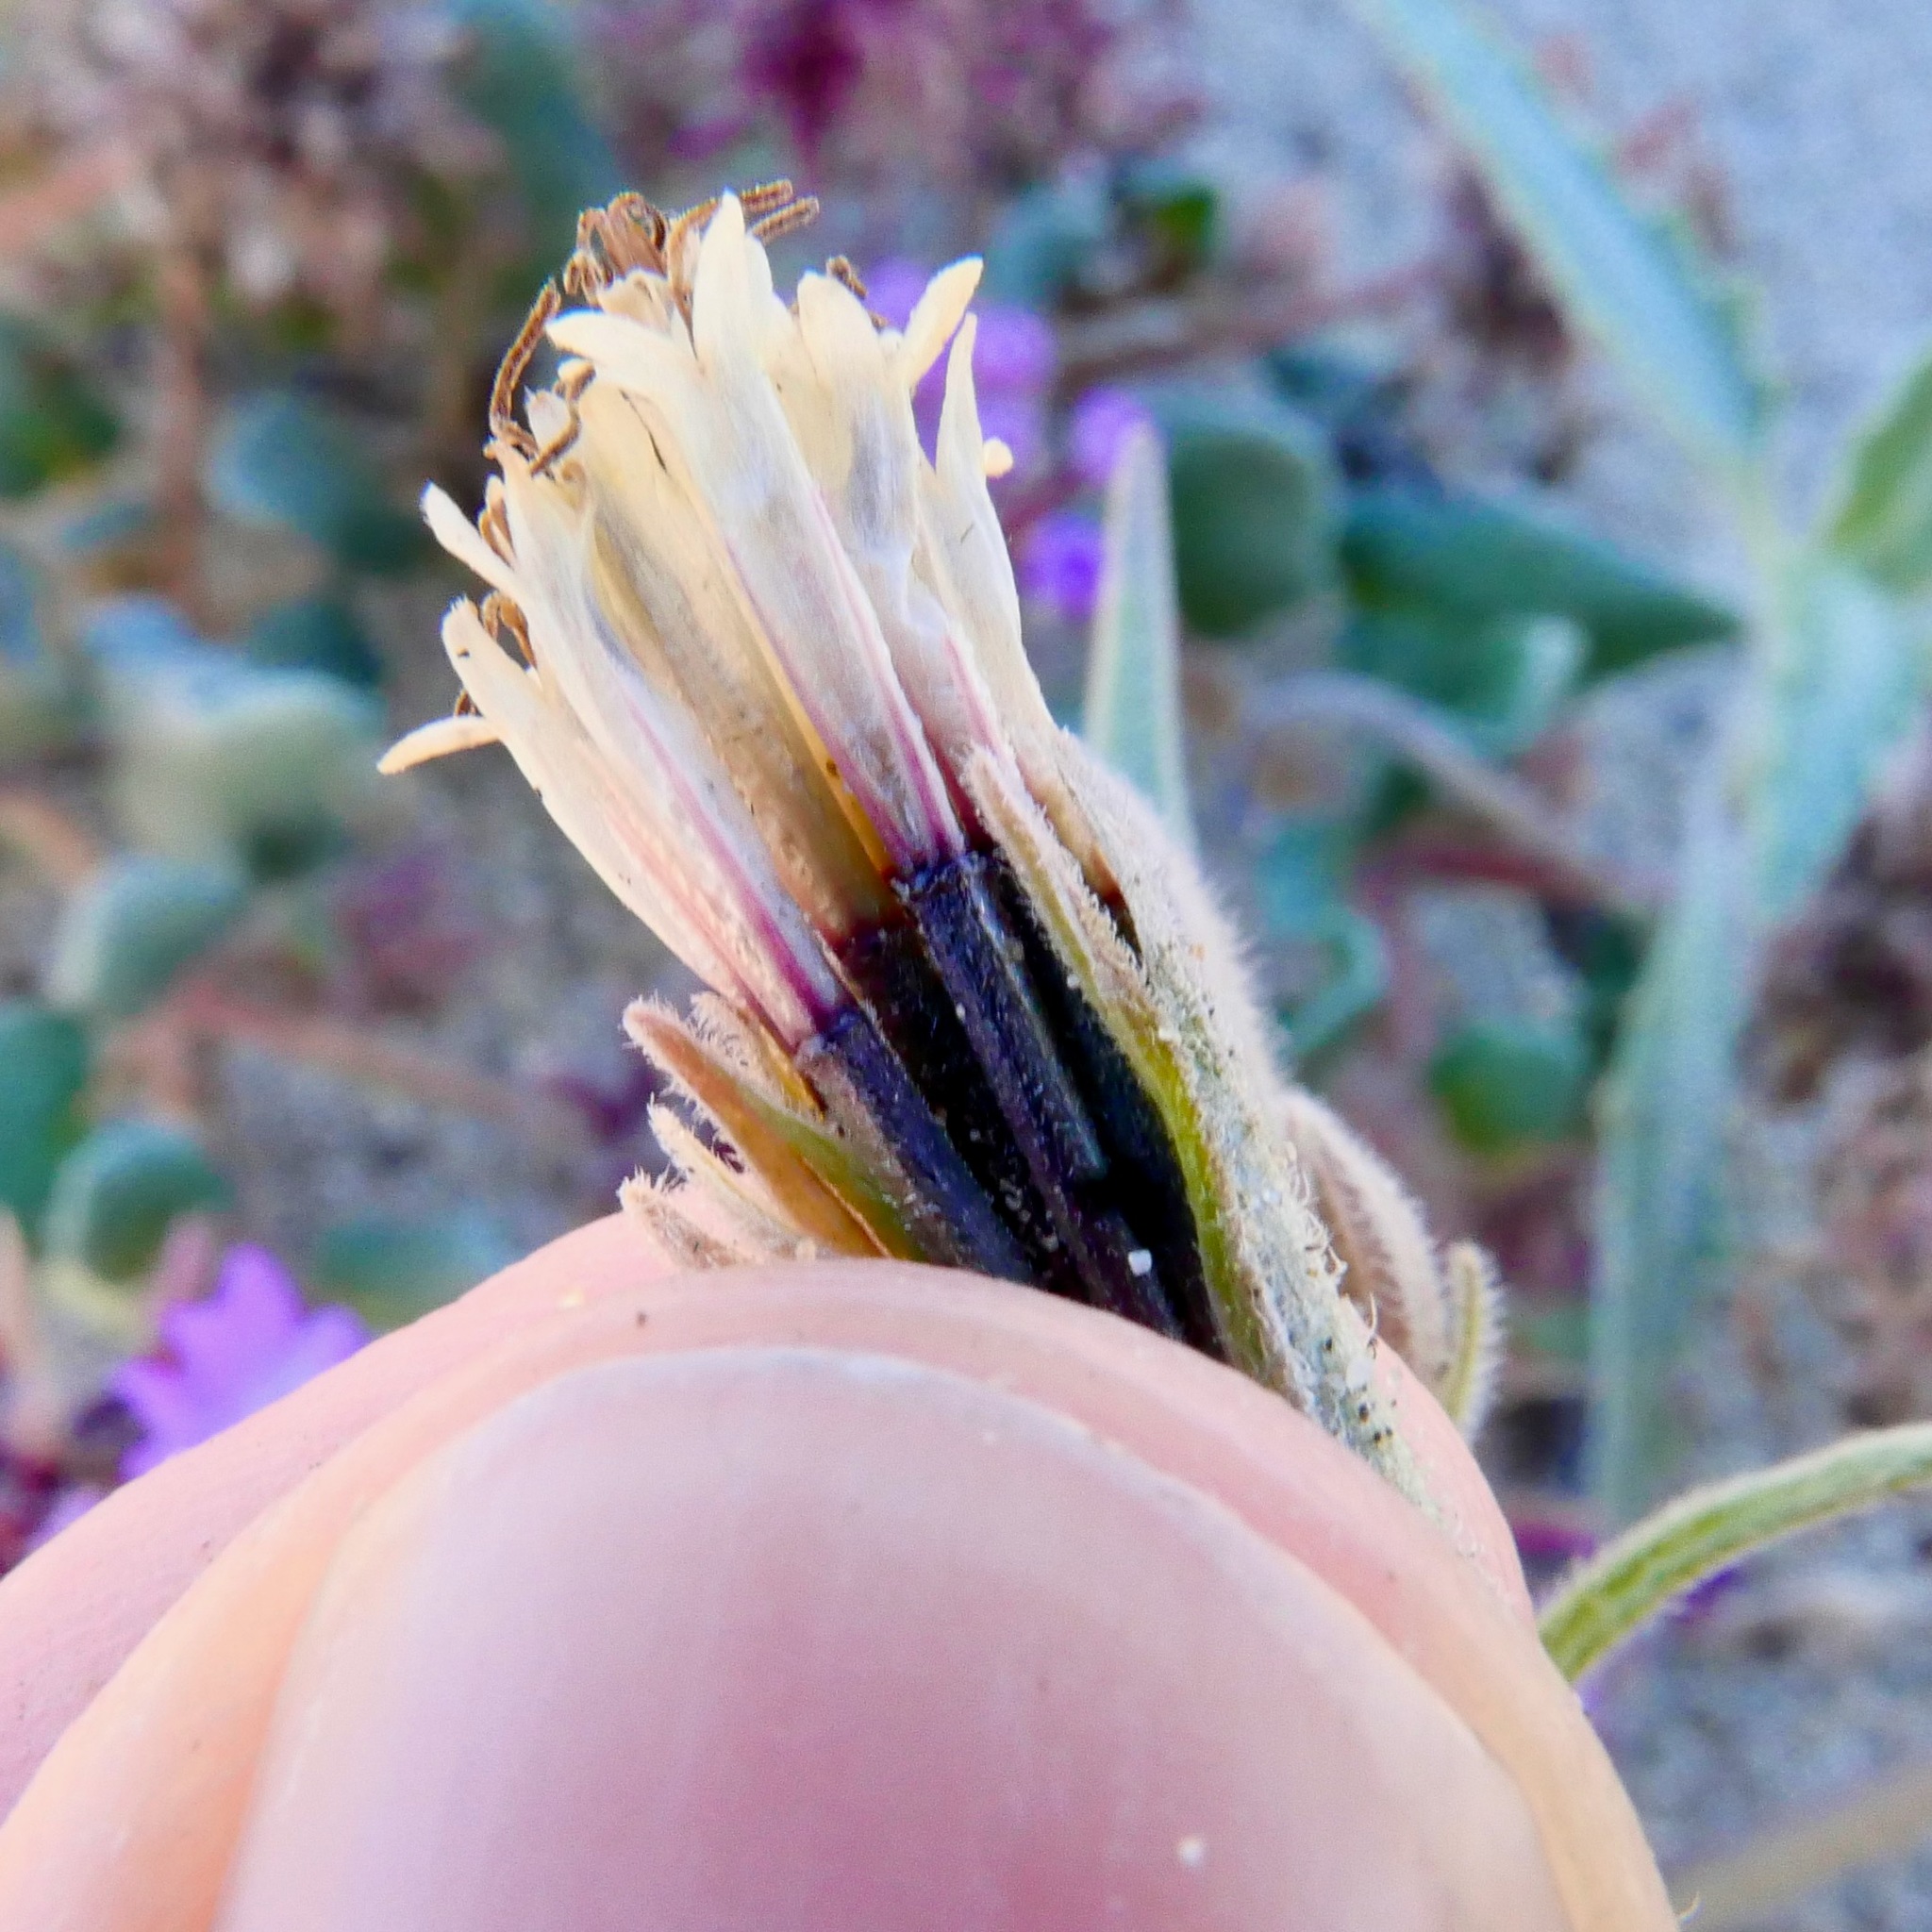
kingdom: Plantae
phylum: Tracheophyta
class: Magnoliopsida
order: Asterales
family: Asteraceae
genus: Palafoxia
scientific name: Palafoxia arida
